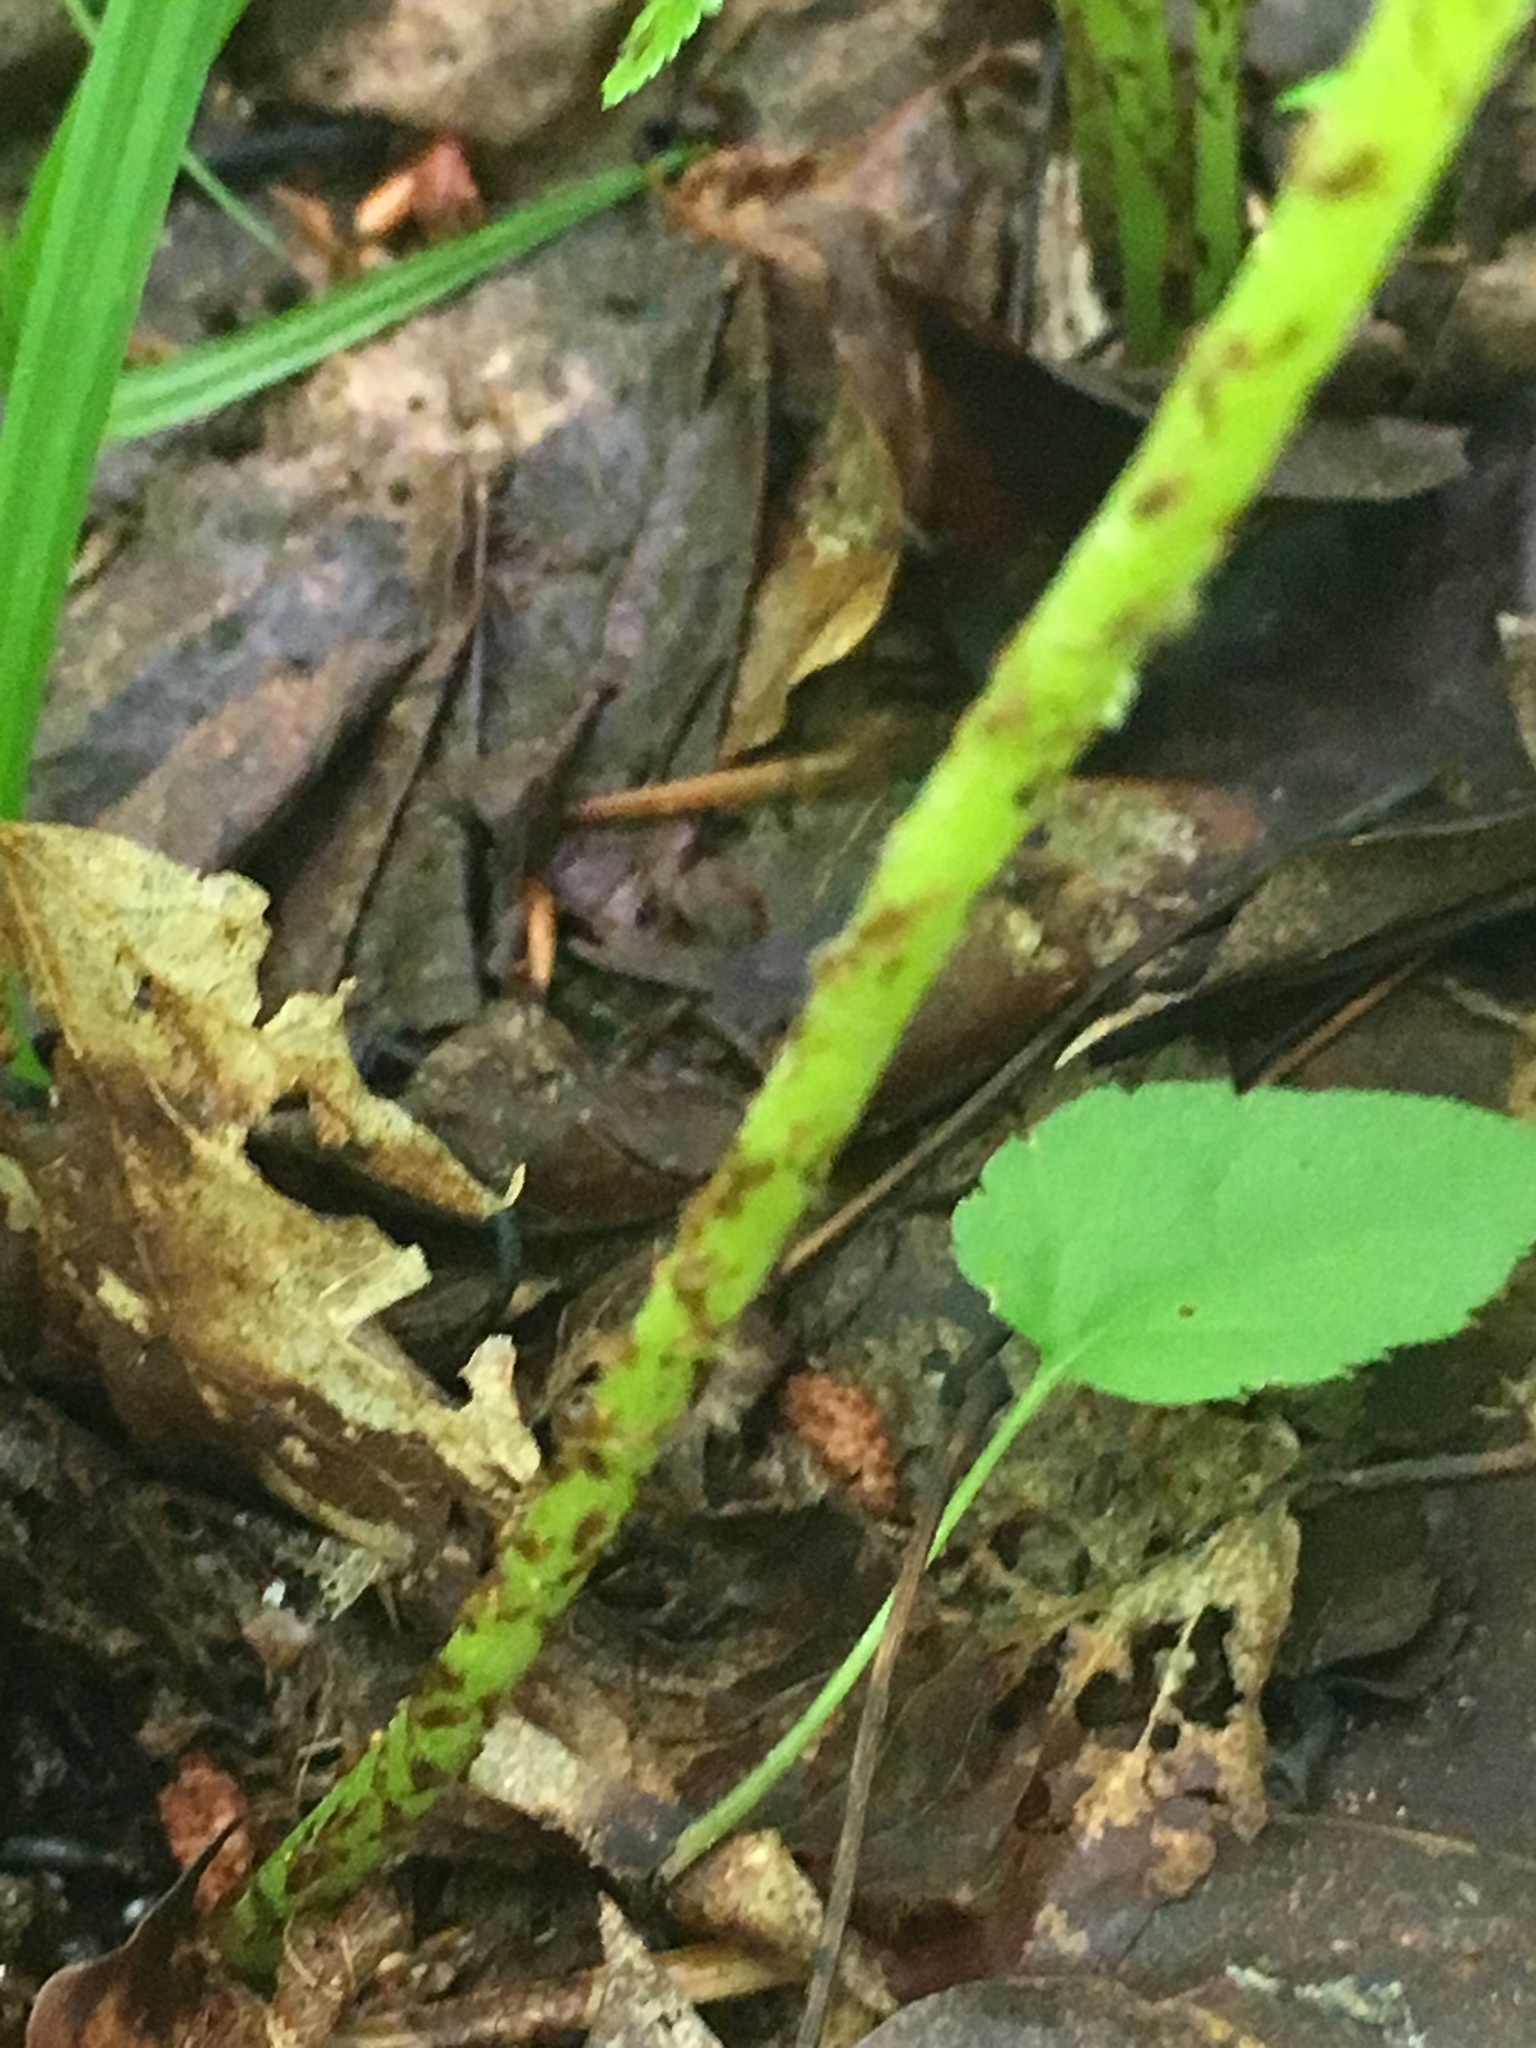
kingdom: Plantae
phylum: Tracheophyta
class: Polypodiopsida
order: Polypodiales
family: Athyriaceae
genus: Athyrium
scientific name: Athyrium angustum
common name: Northern lady fern
